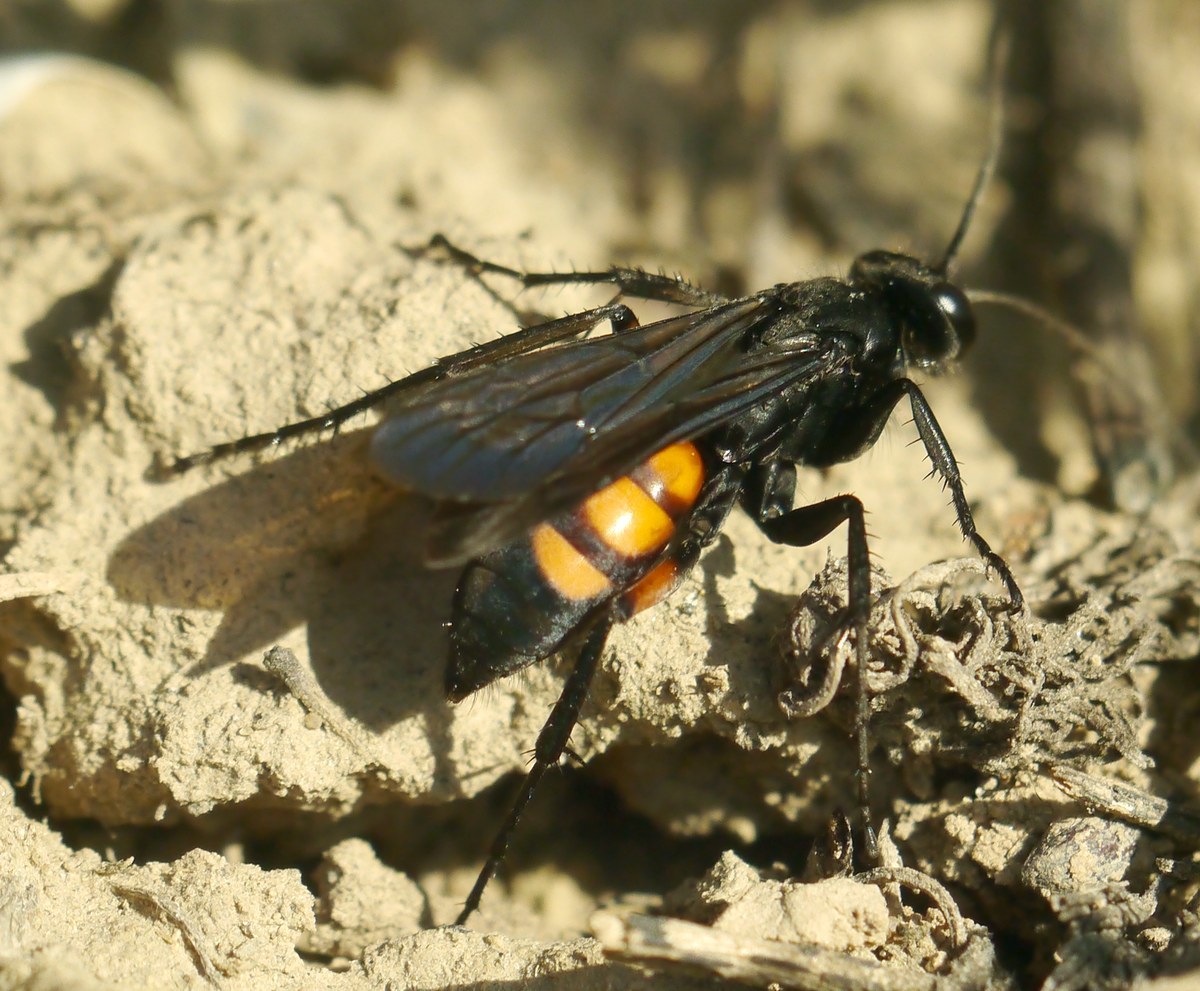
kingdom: Animalia
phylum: Arthropoda
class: Insecta
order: Hymenoptera
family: Pompilidae
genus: Anoplius
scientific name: Anoplius viaticus
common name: Black banded spider wasp
